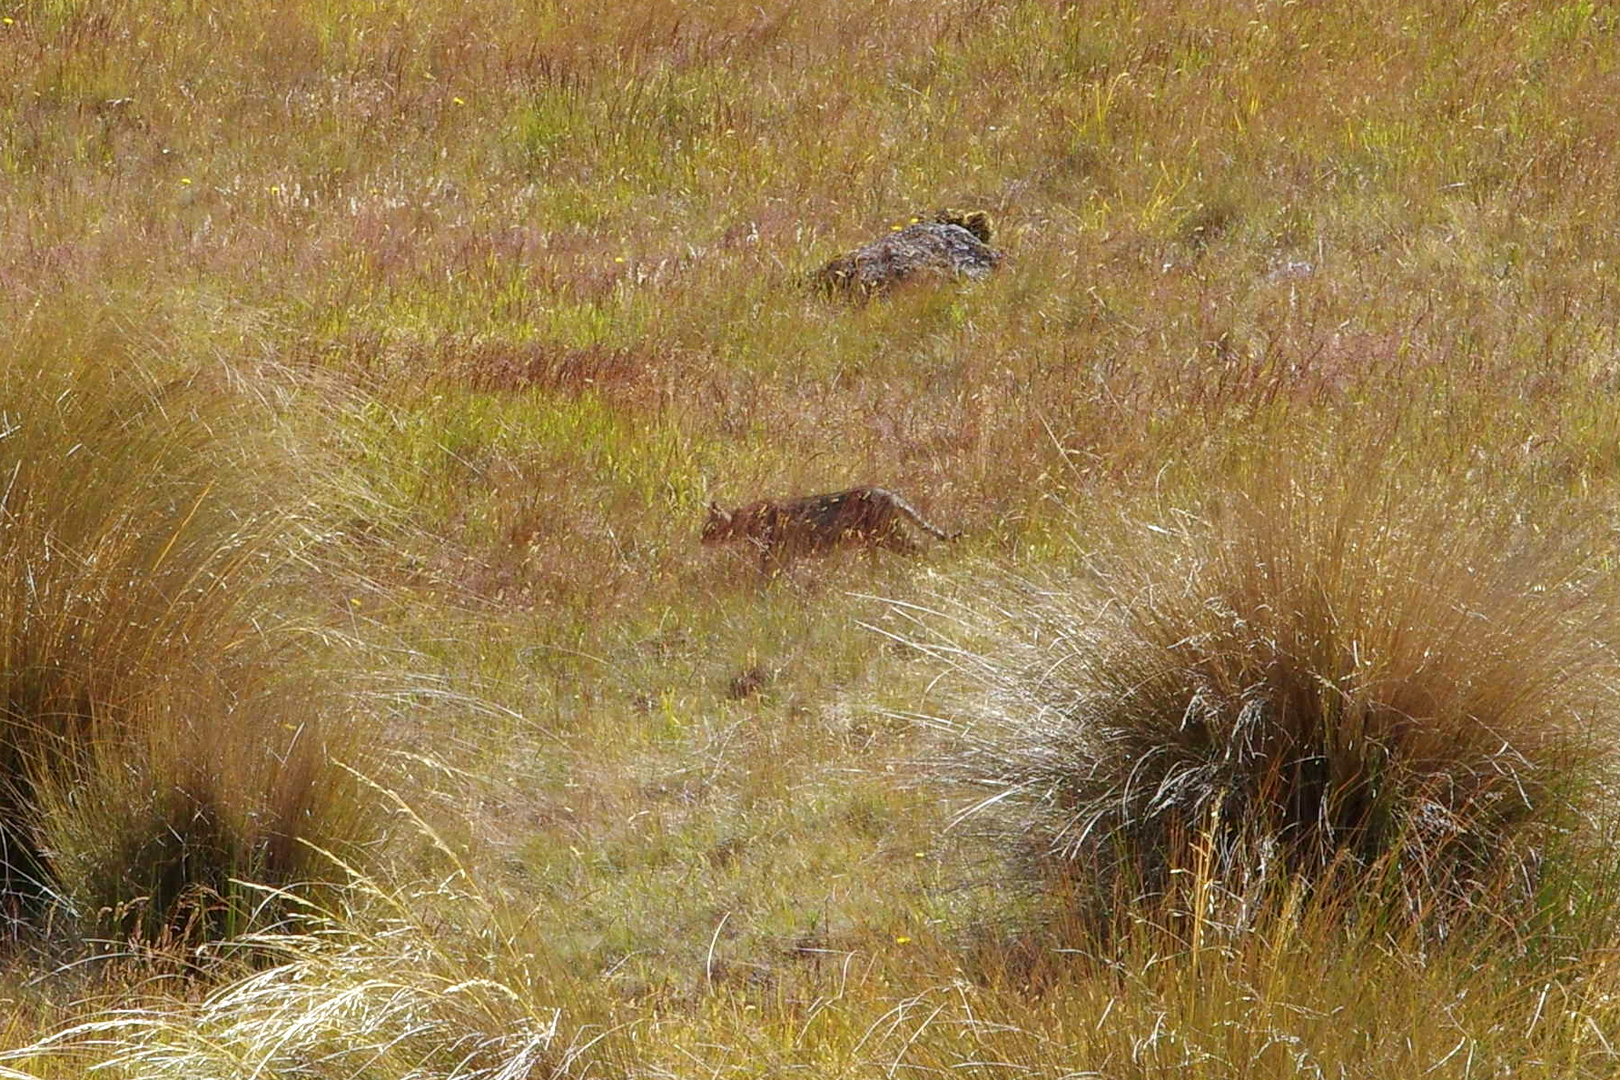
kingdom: Animalia
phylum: Chordata
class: Mammalia
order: Carnivora
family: Felidae
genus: Felis
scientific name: Felis catus
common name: Domestic cat
